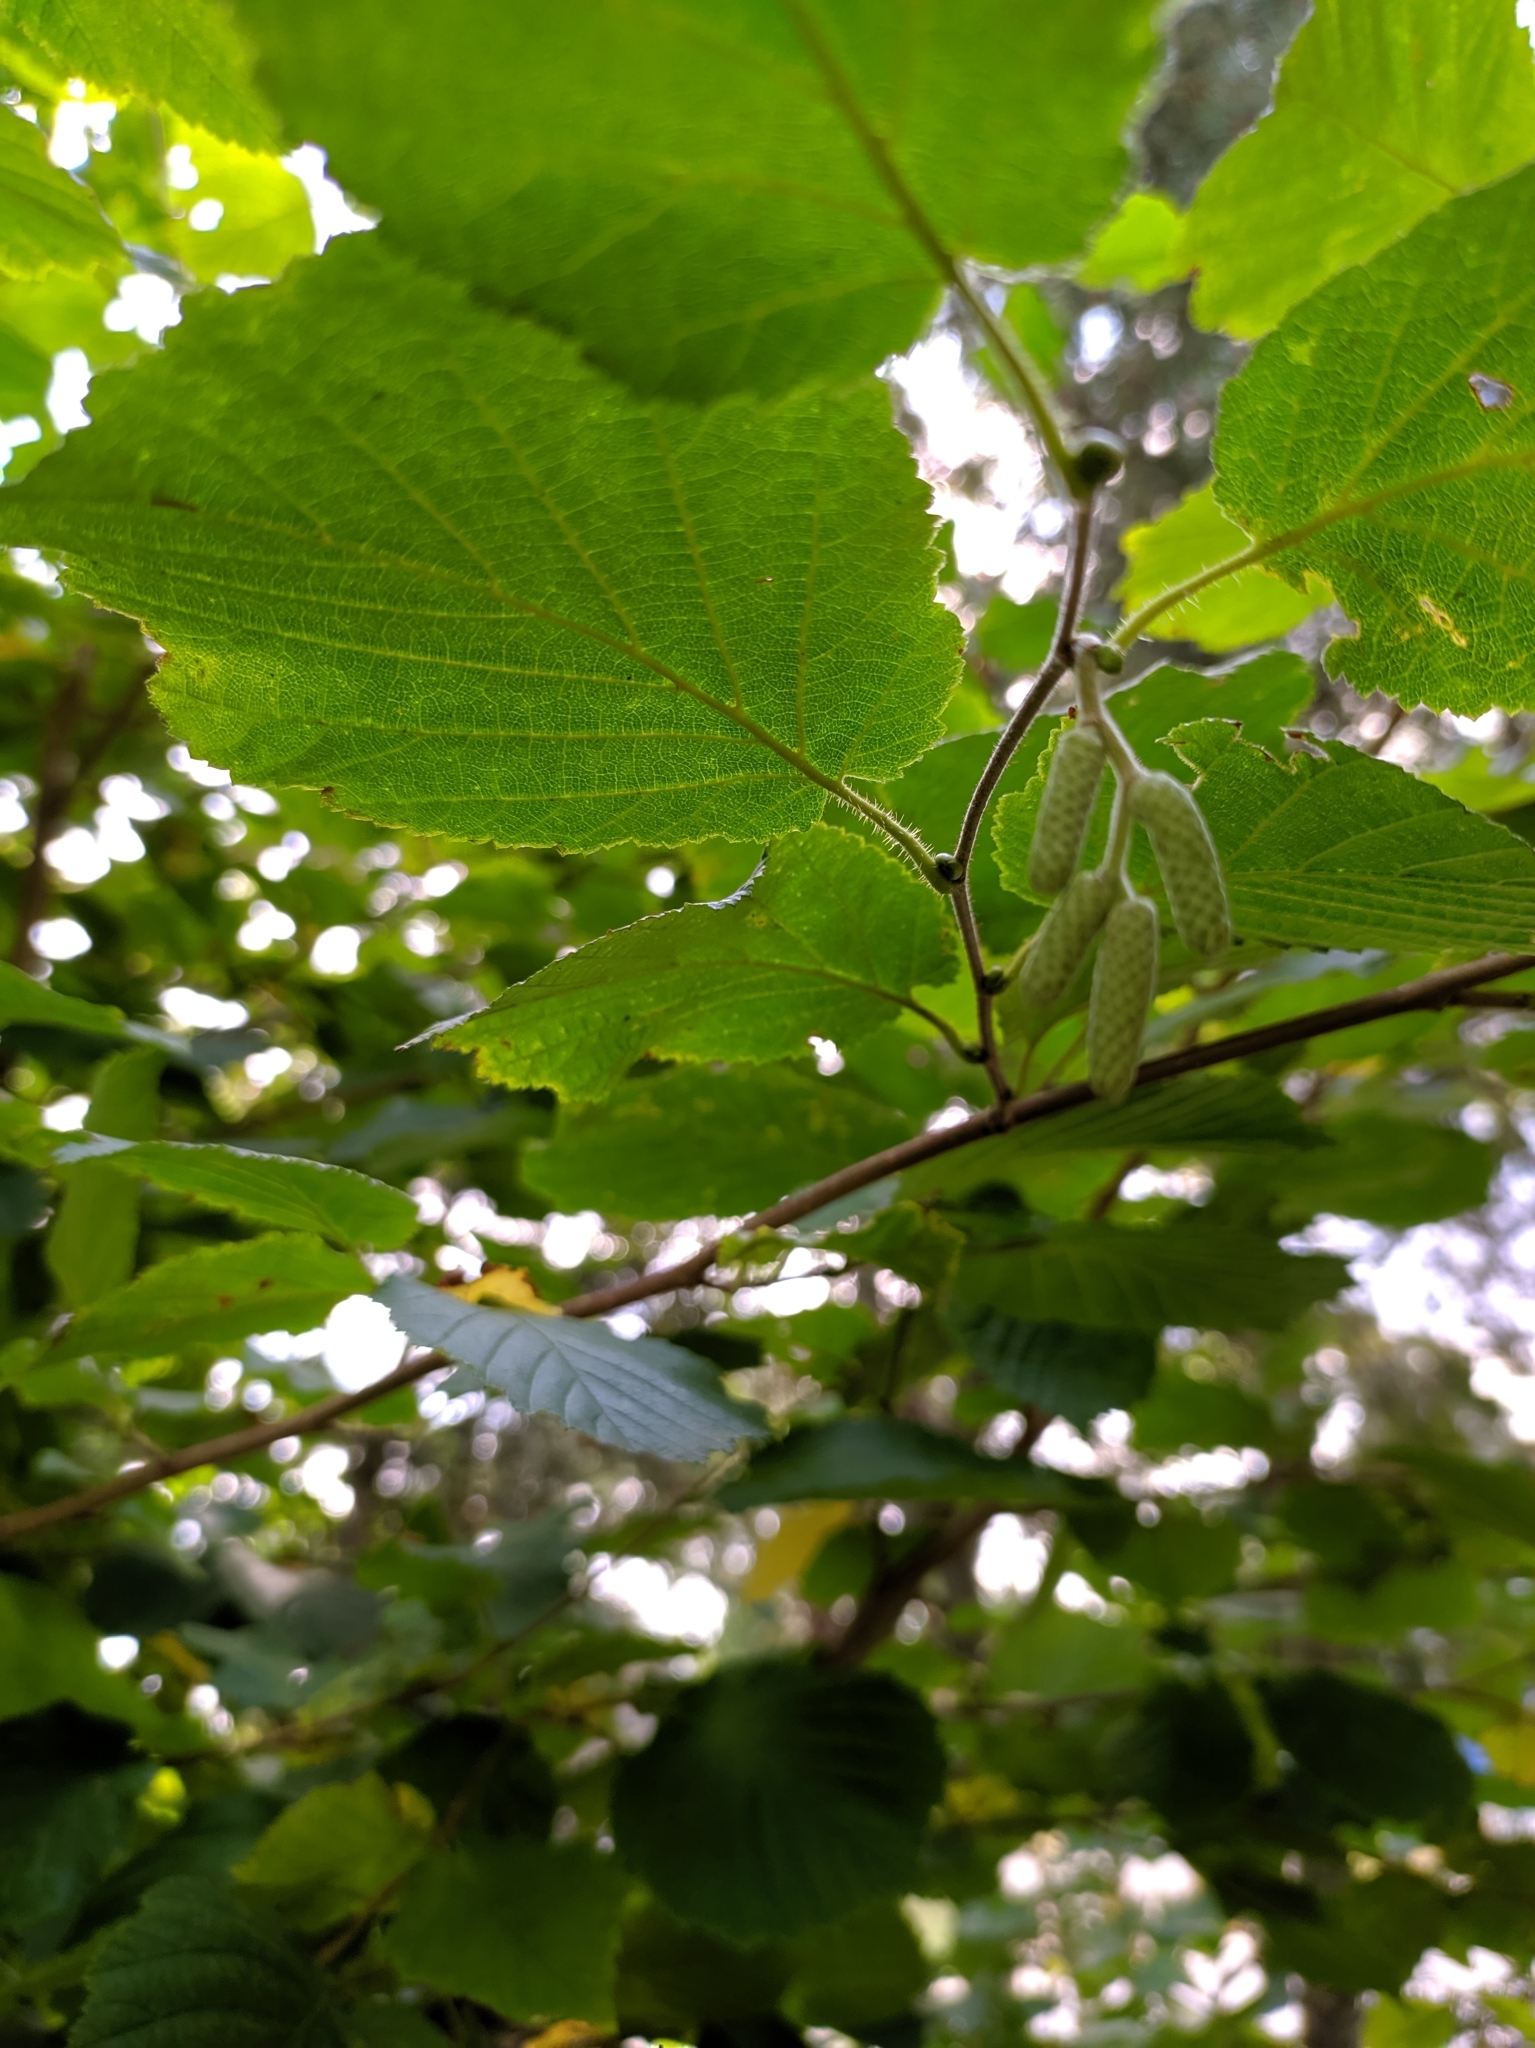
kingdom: Plantae
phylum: Tracheophyta
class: Magnoliopsida
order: Fagales
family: Betulaceae
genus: Corylus
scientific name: Corylus avellana
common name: European hazel
